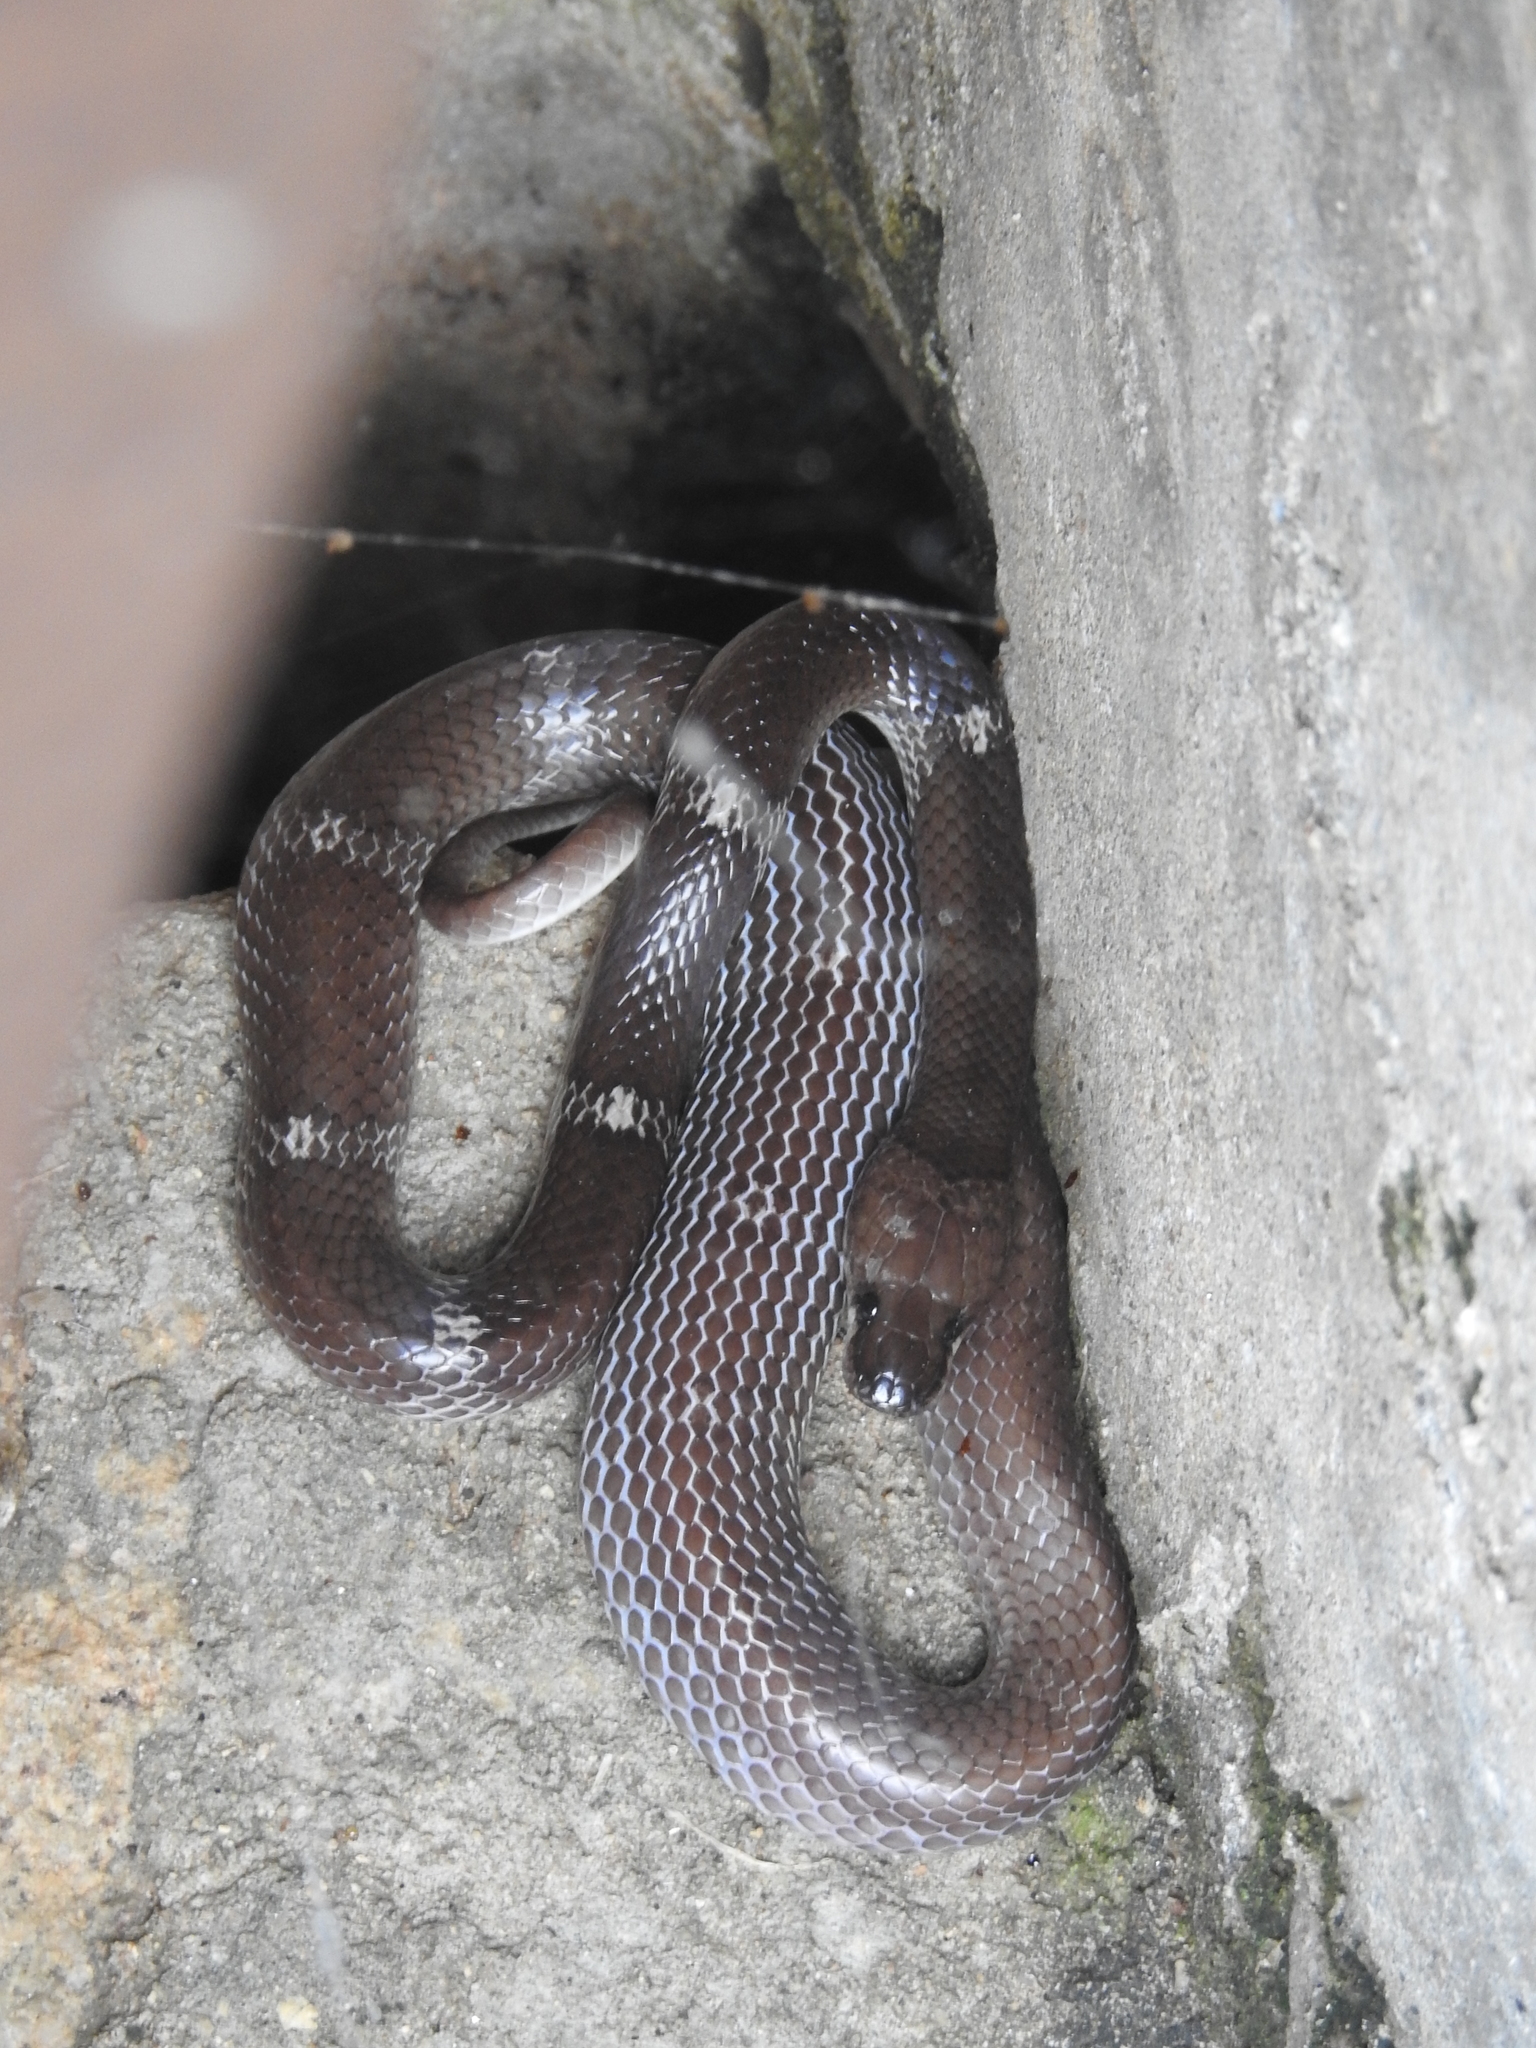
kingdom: Animalia
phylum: Chordata
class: Squamata
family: Colubridae
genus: Lycodon
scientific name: Lycodon aulicus
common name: Common wolf snake
